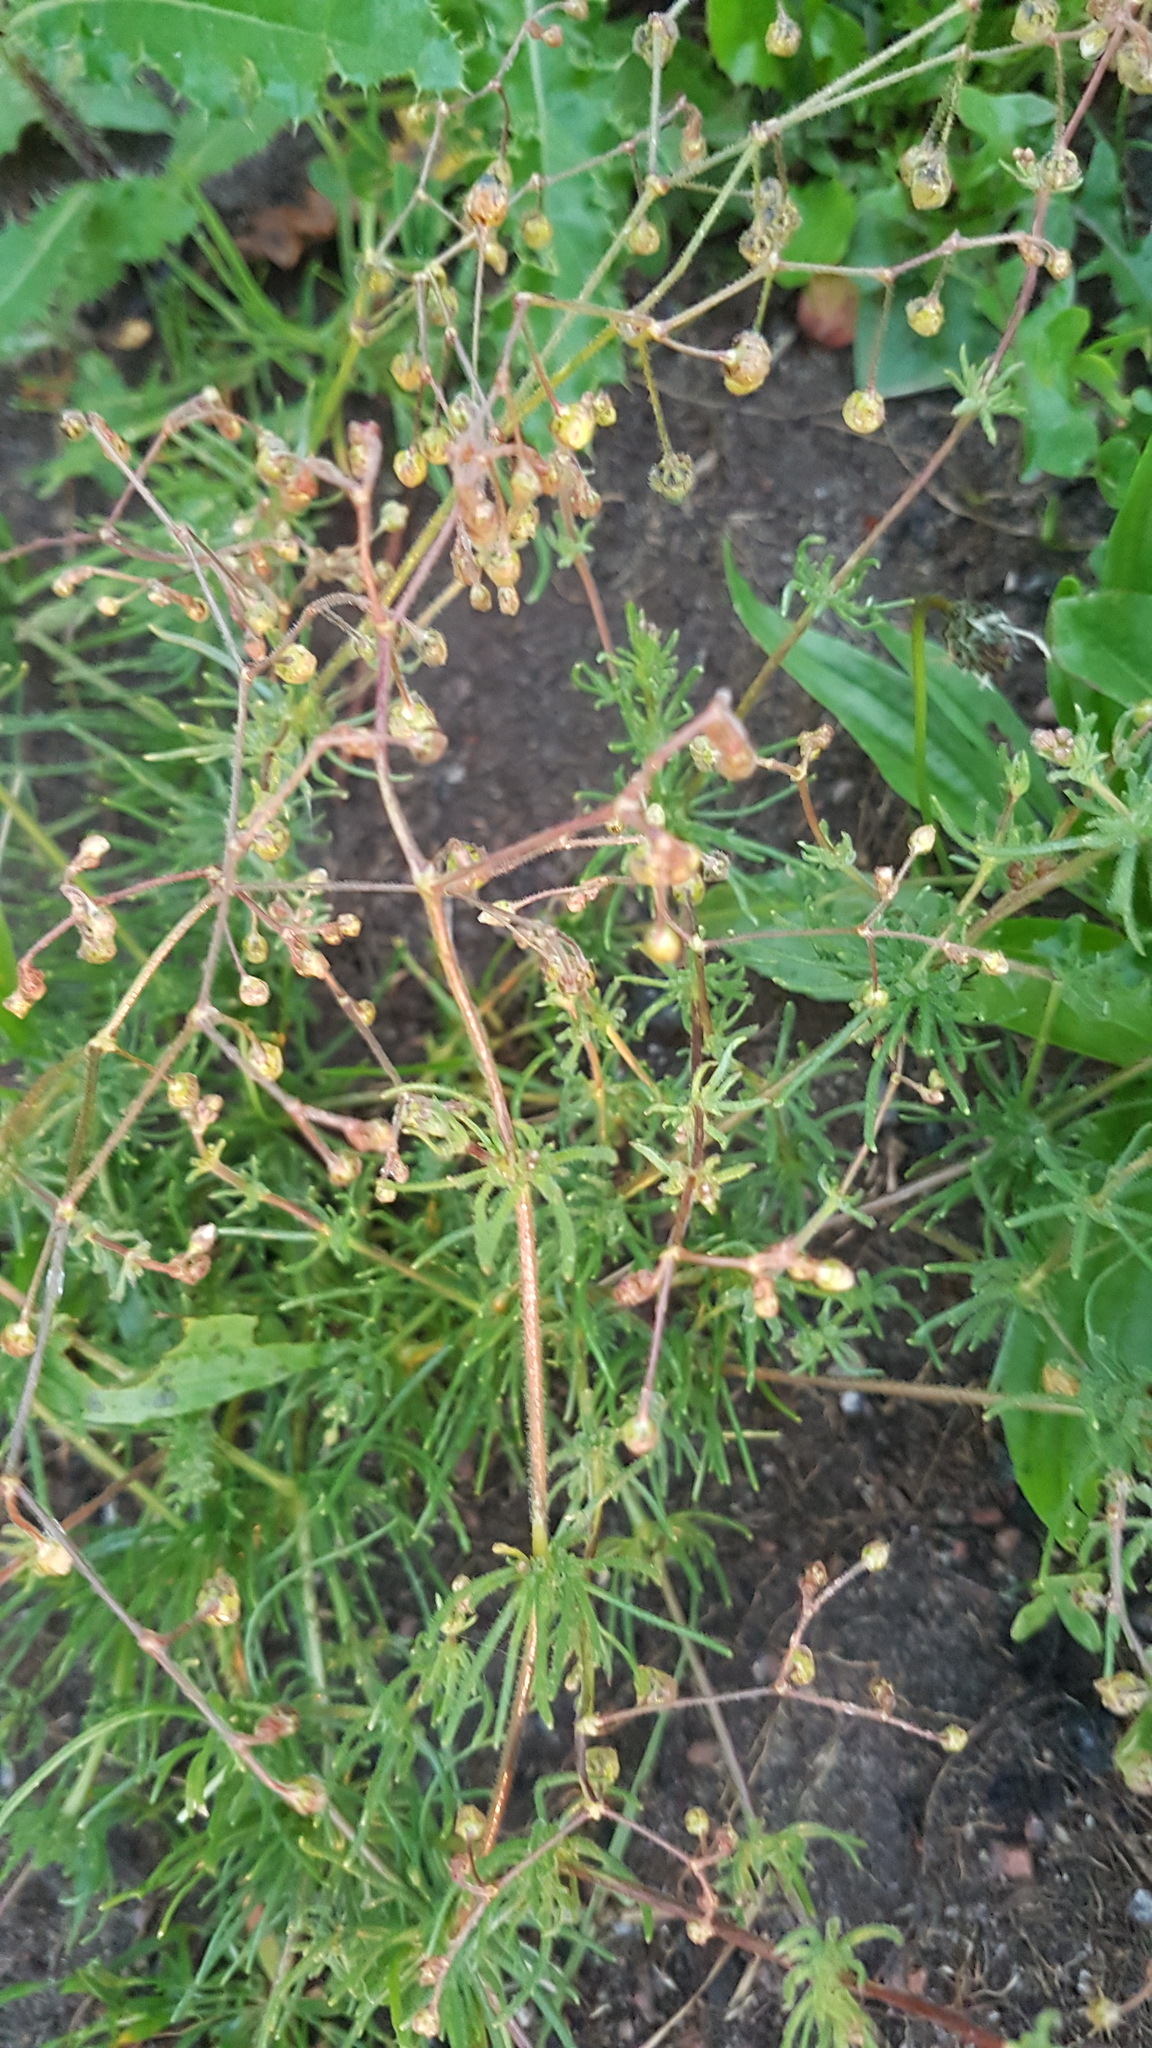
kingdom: Plantae
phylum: Tracheophyta
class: Magnoliopsida
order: Caryophyllales
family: Caryophyllaceae
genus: Spergula
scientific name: Spergula arvensis
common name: Corn spurrey
